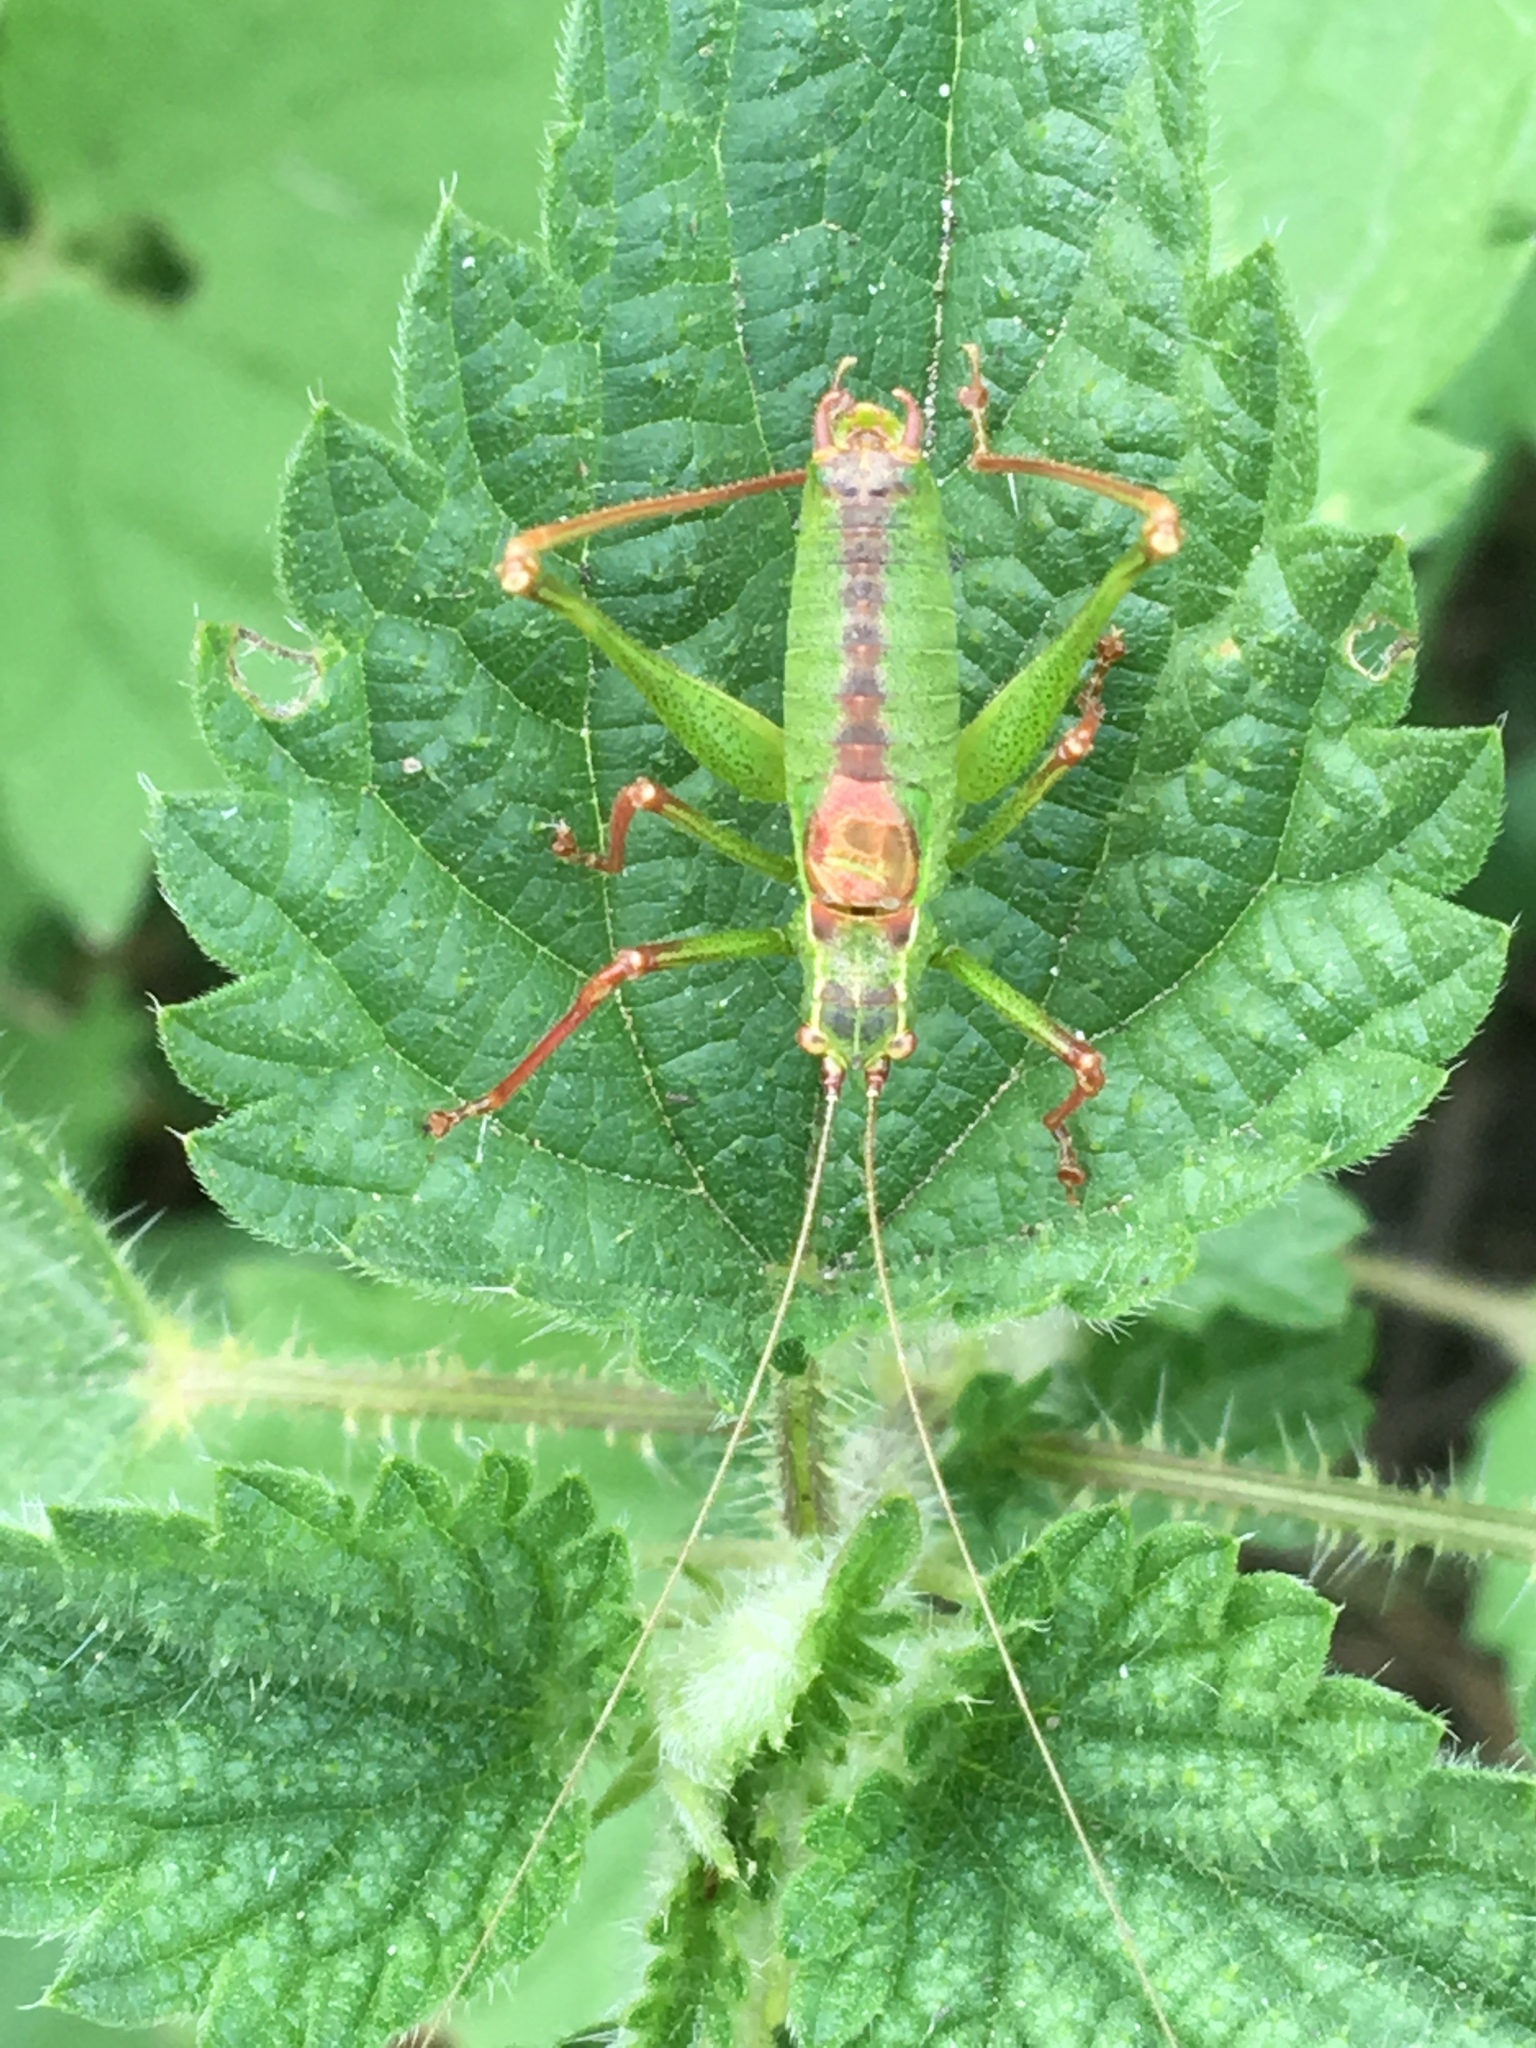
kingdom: Animalia
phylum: Arthropoda
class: Insecta
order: Orthoptera
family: Tettigoniidae
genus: Leptophyes
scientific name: Leptophyes punctatissima
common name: Speckled bush-cricket
